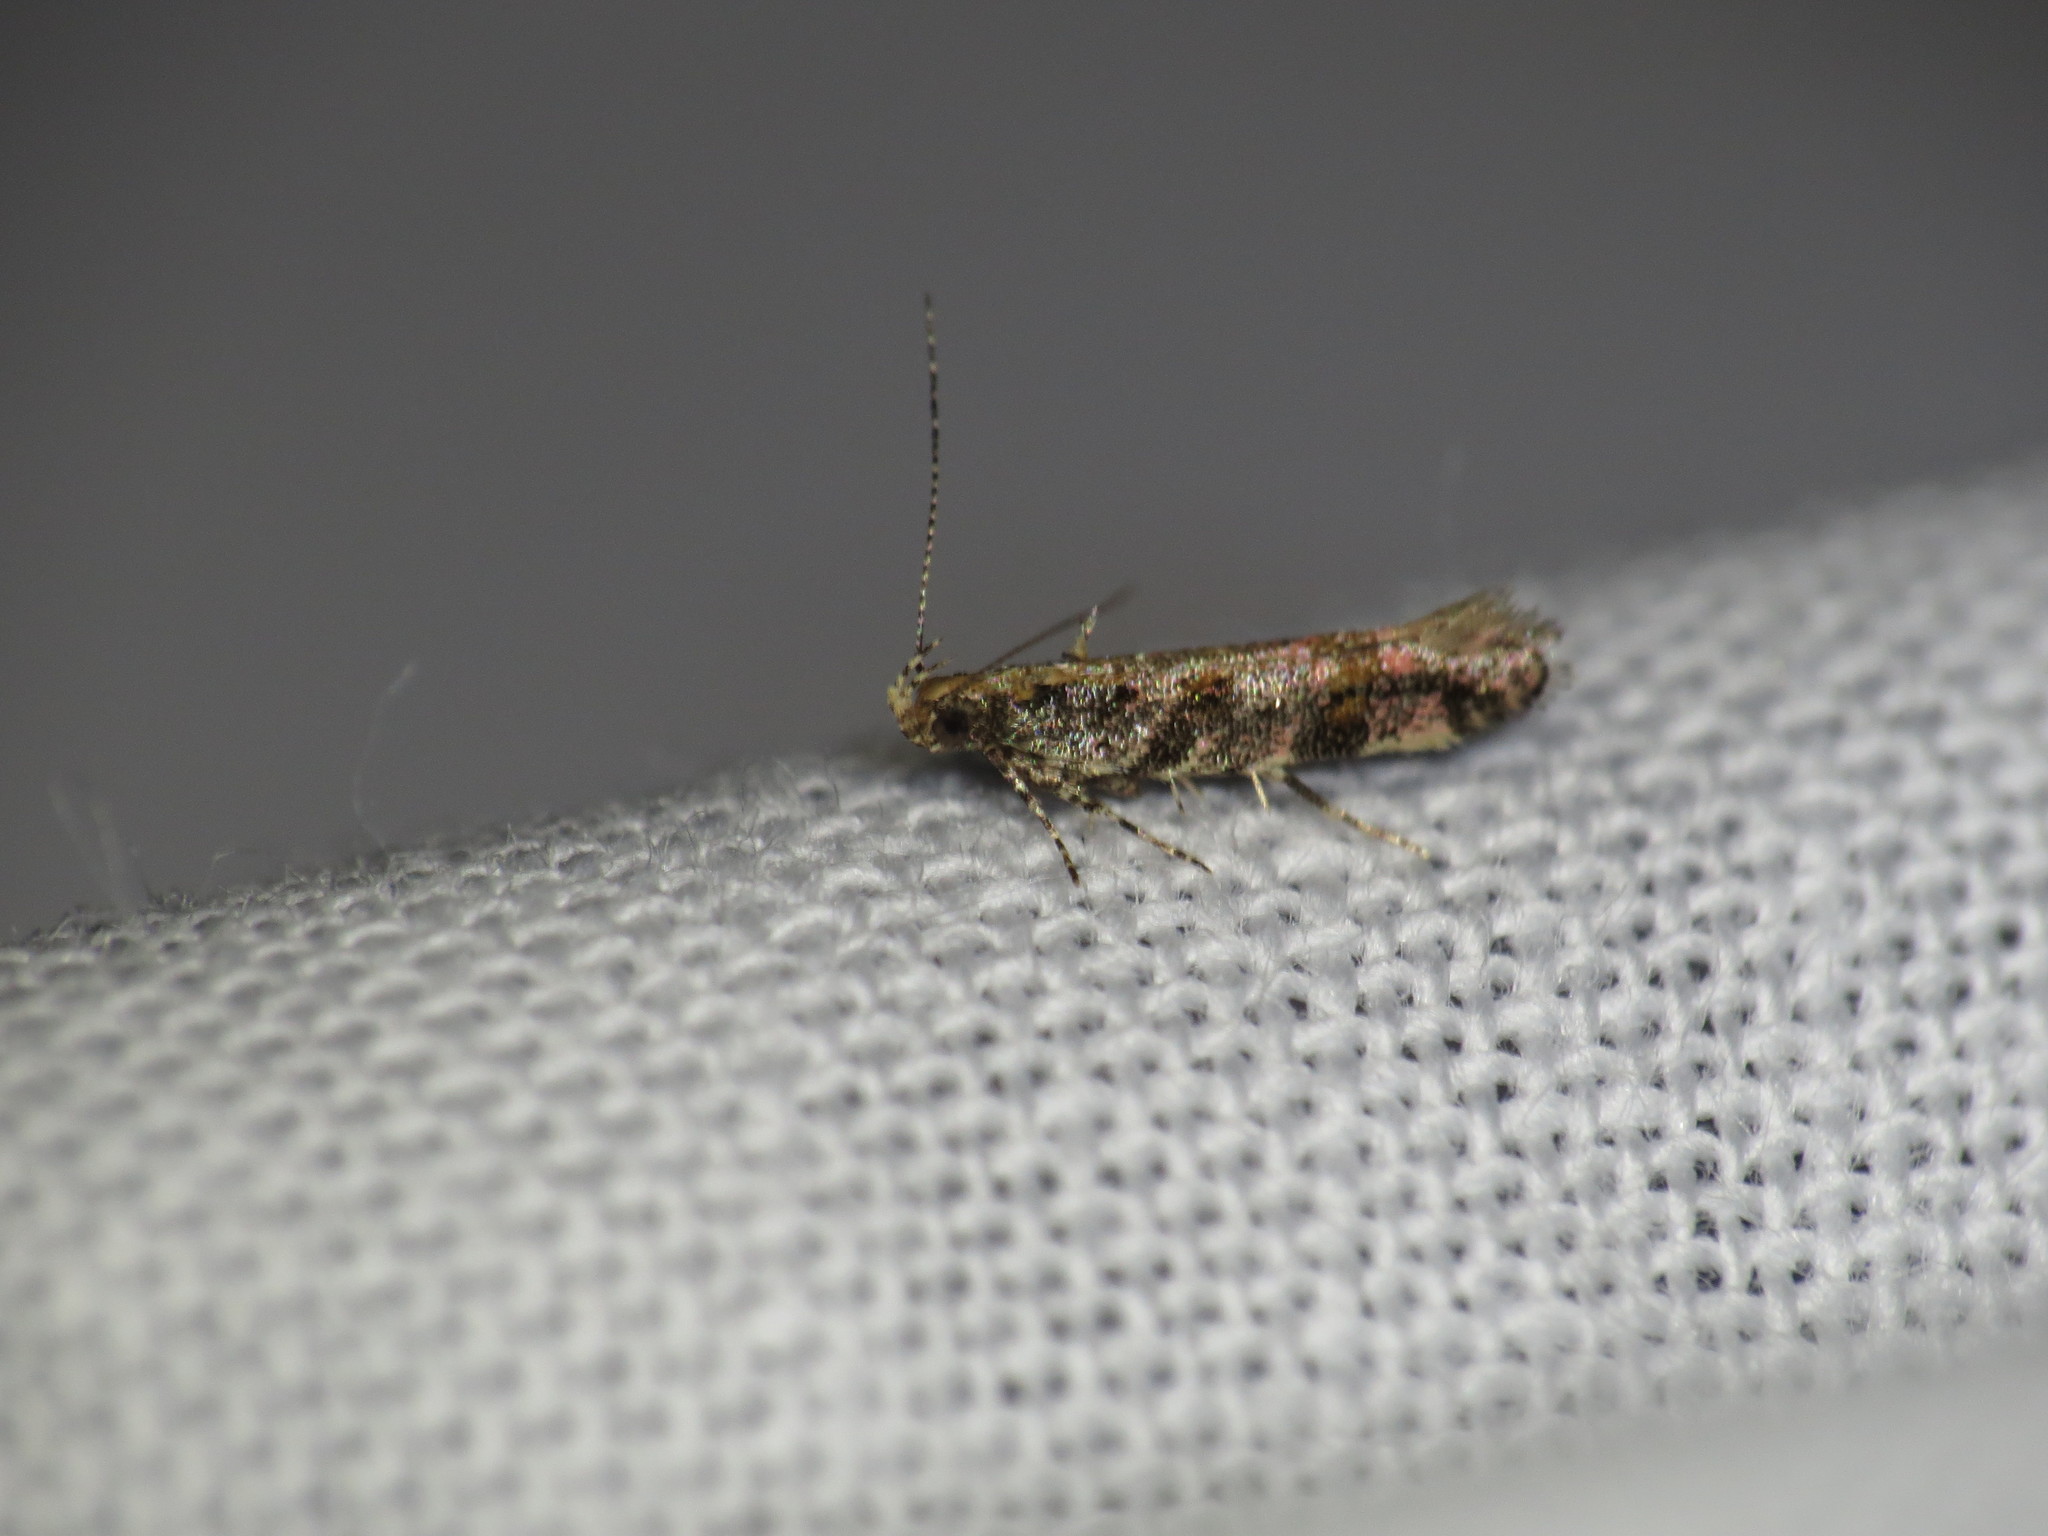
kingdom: Animalia
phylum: Arthropoda
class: Insecta
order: Lepidoptera
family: Gelechiidae
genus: Aristotelia
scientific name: Aristotelia rubidella
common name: Ruby aristotelia moth
